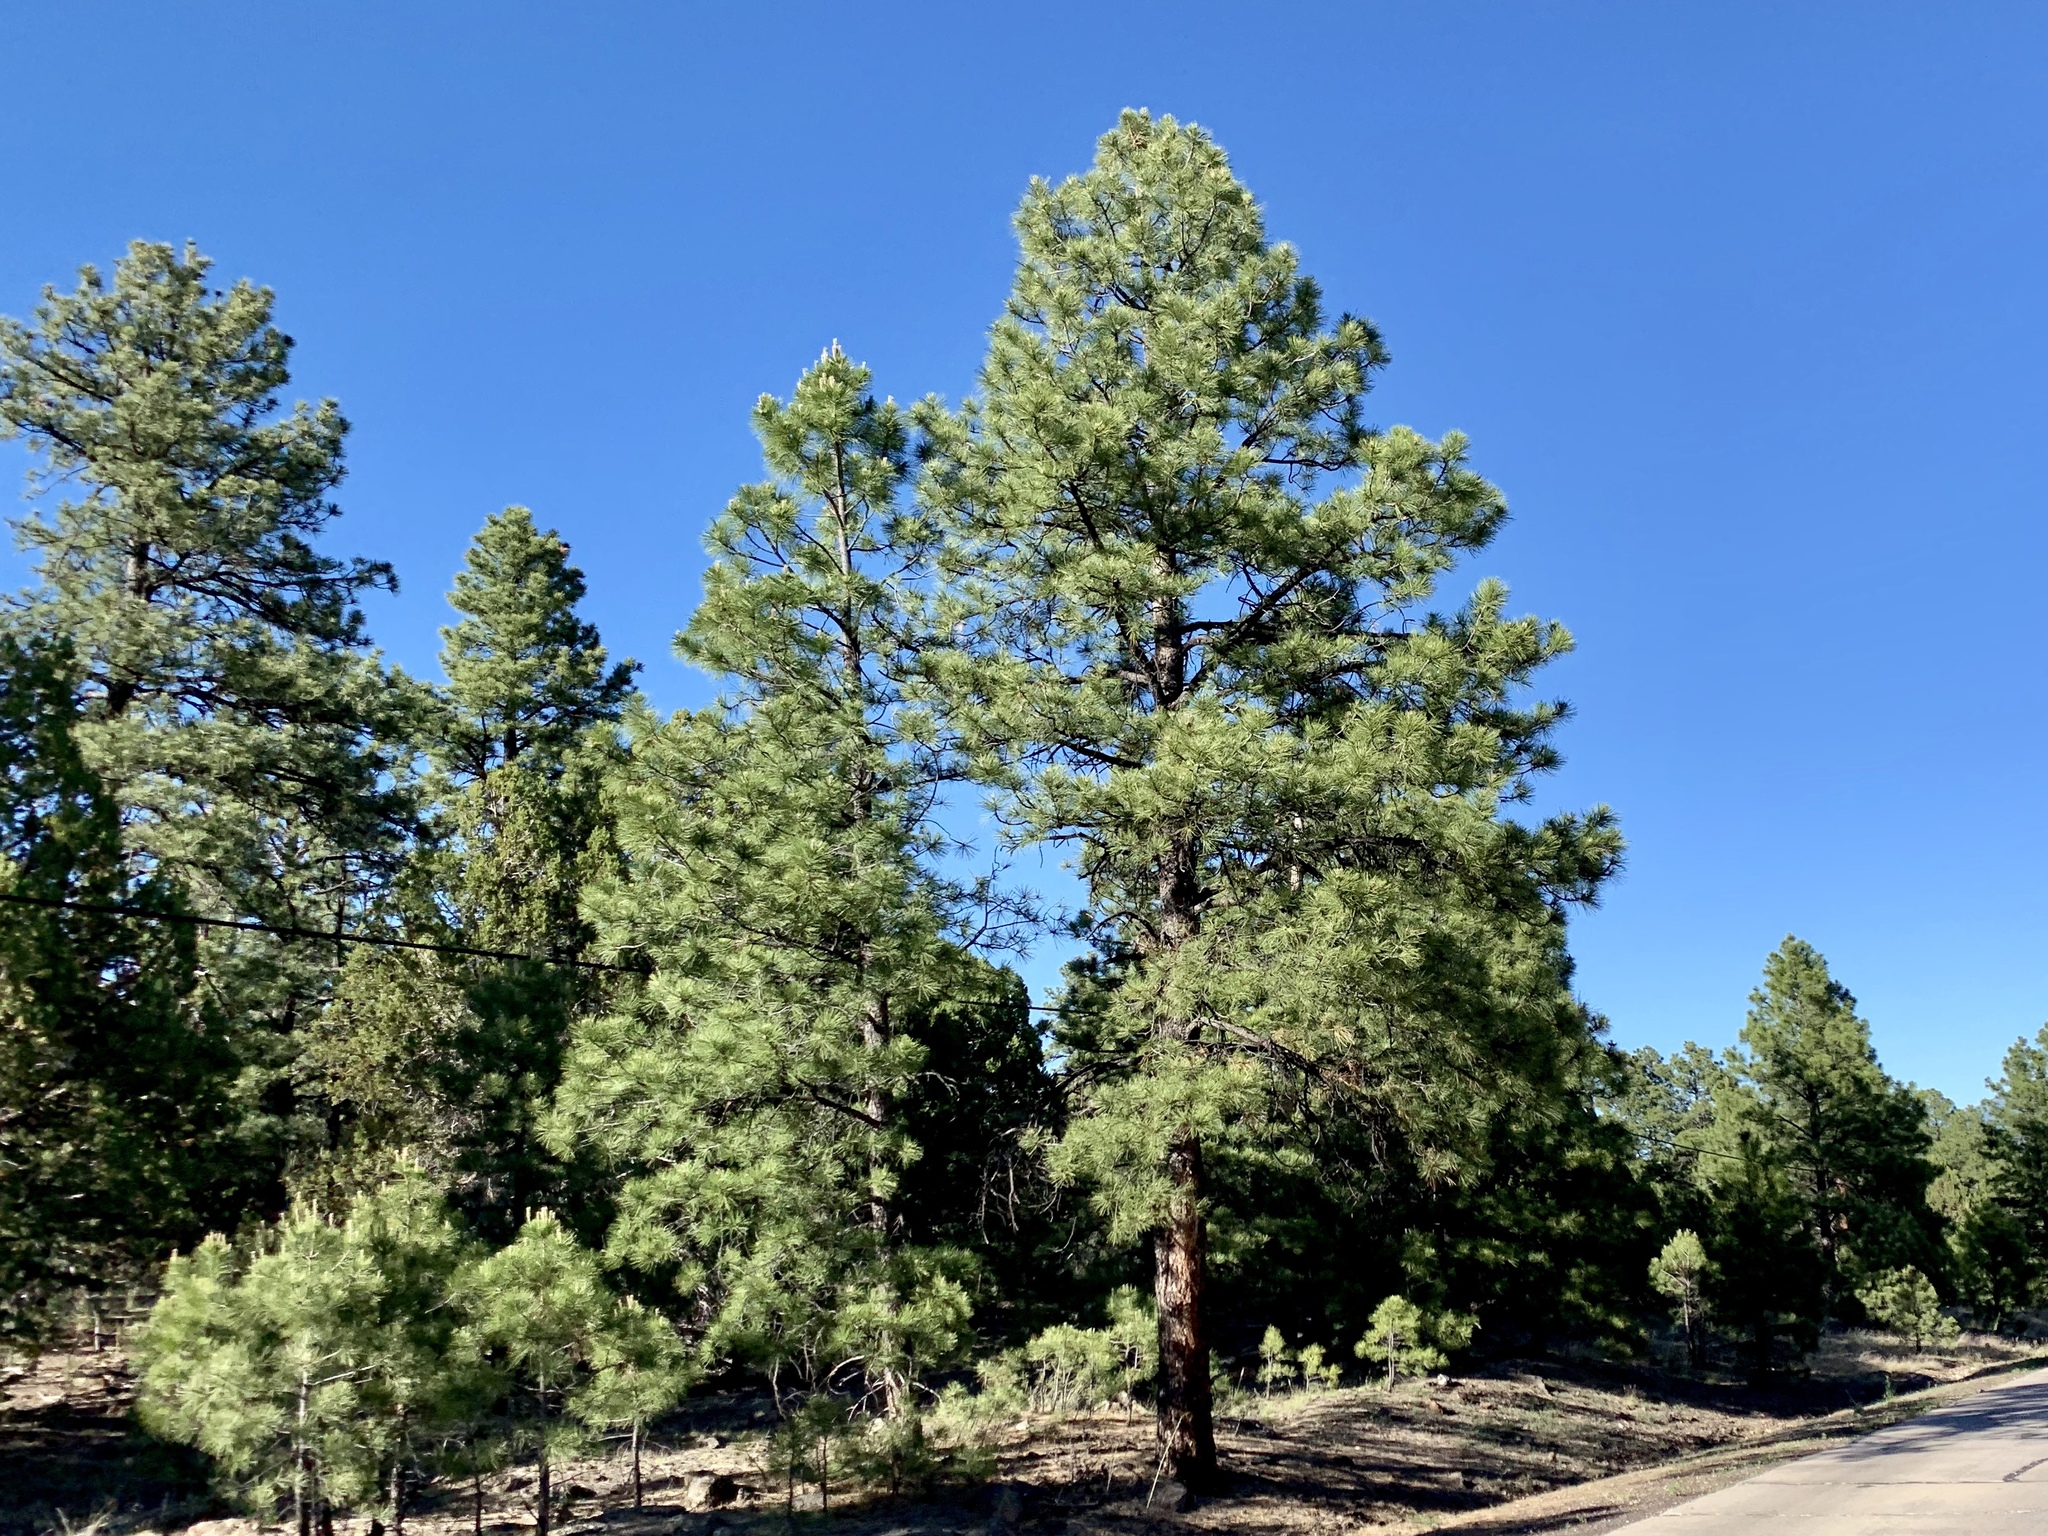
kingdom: Plantae
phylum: Tracheophyta
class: Pinopsida
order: Pinales
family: Pinaceae
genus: Pinus
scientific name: Pinus ponderosa
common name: Western yellow-pine
